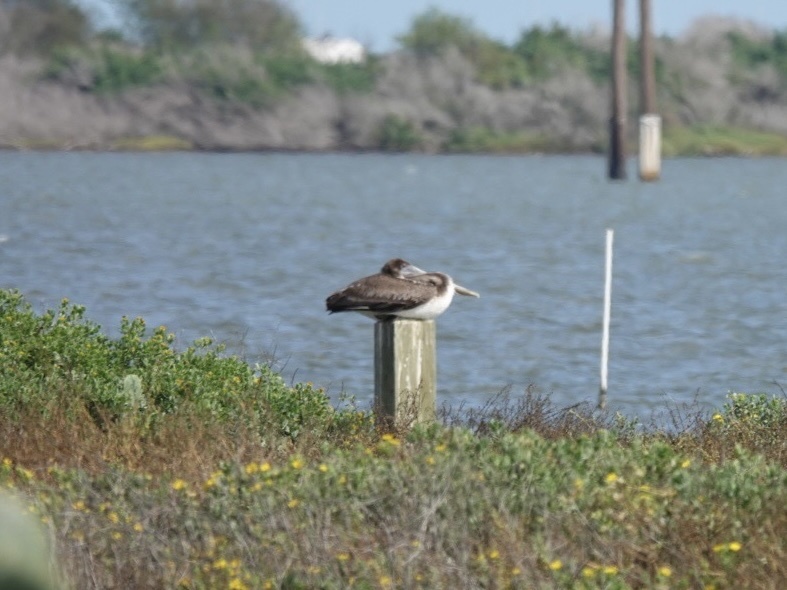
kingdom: Animalia
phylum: Chordata
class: Aves
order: Pelecaniformes
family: Pelecanidae
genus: Pelecanus
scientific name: Pelecanus occidentalis
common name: Brown pelican
